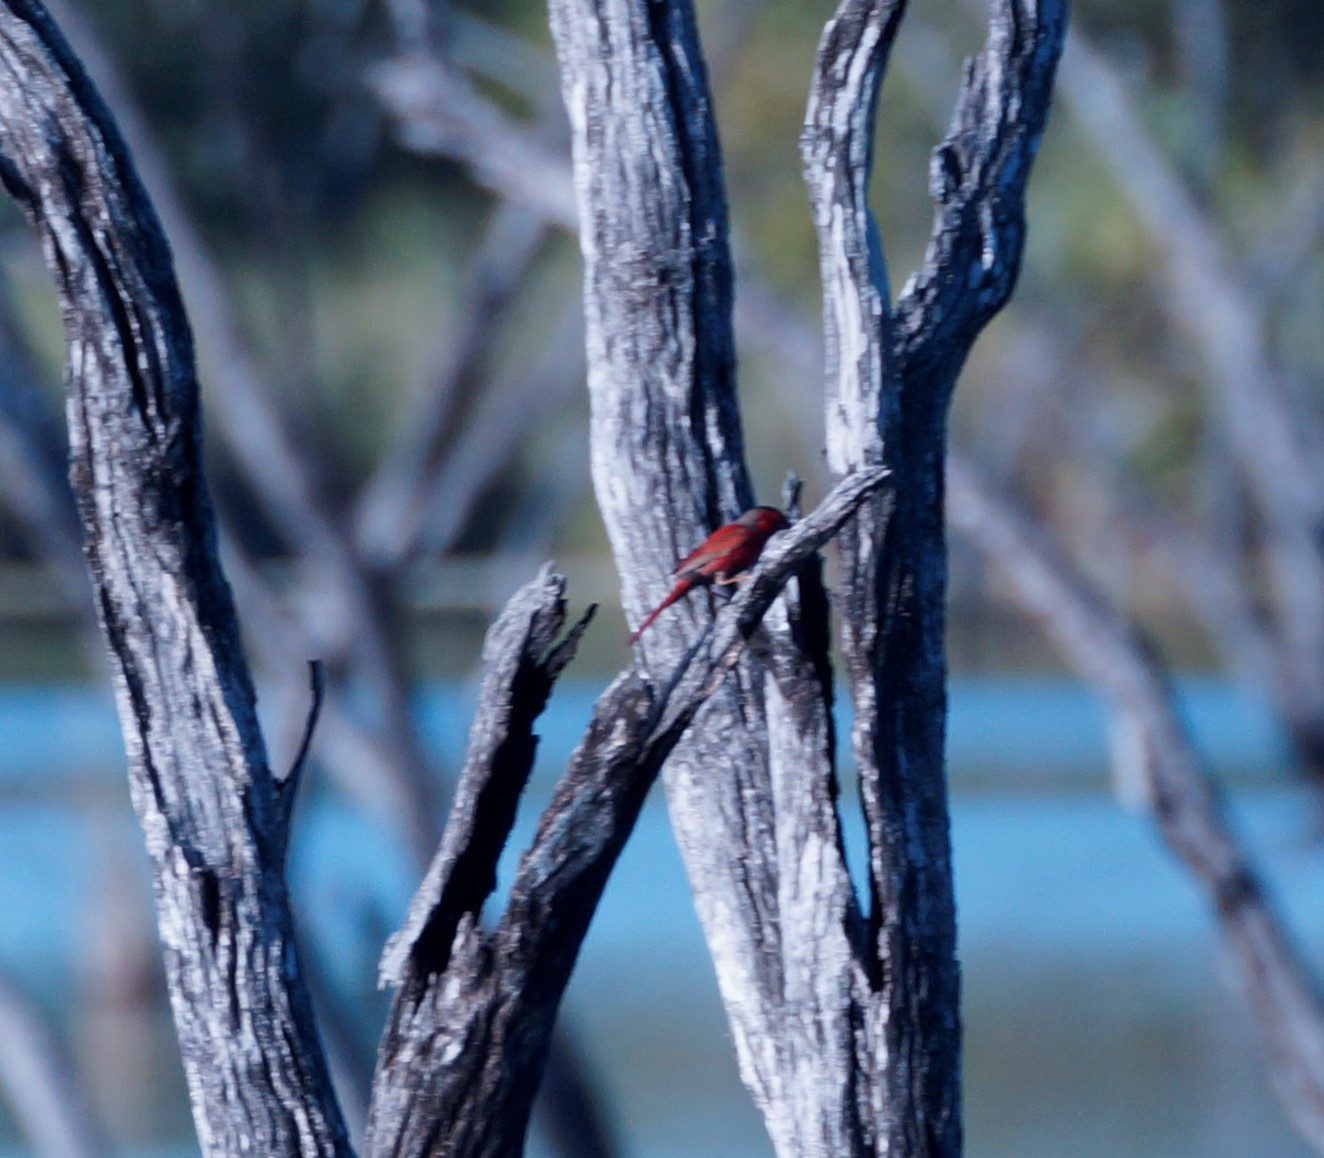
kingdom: Animalia
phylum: Chordata
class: Aves
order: Passeriformes
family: Estrildidae
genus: Neochmia
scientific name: Neochmia phaeton
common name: Crimson finch
